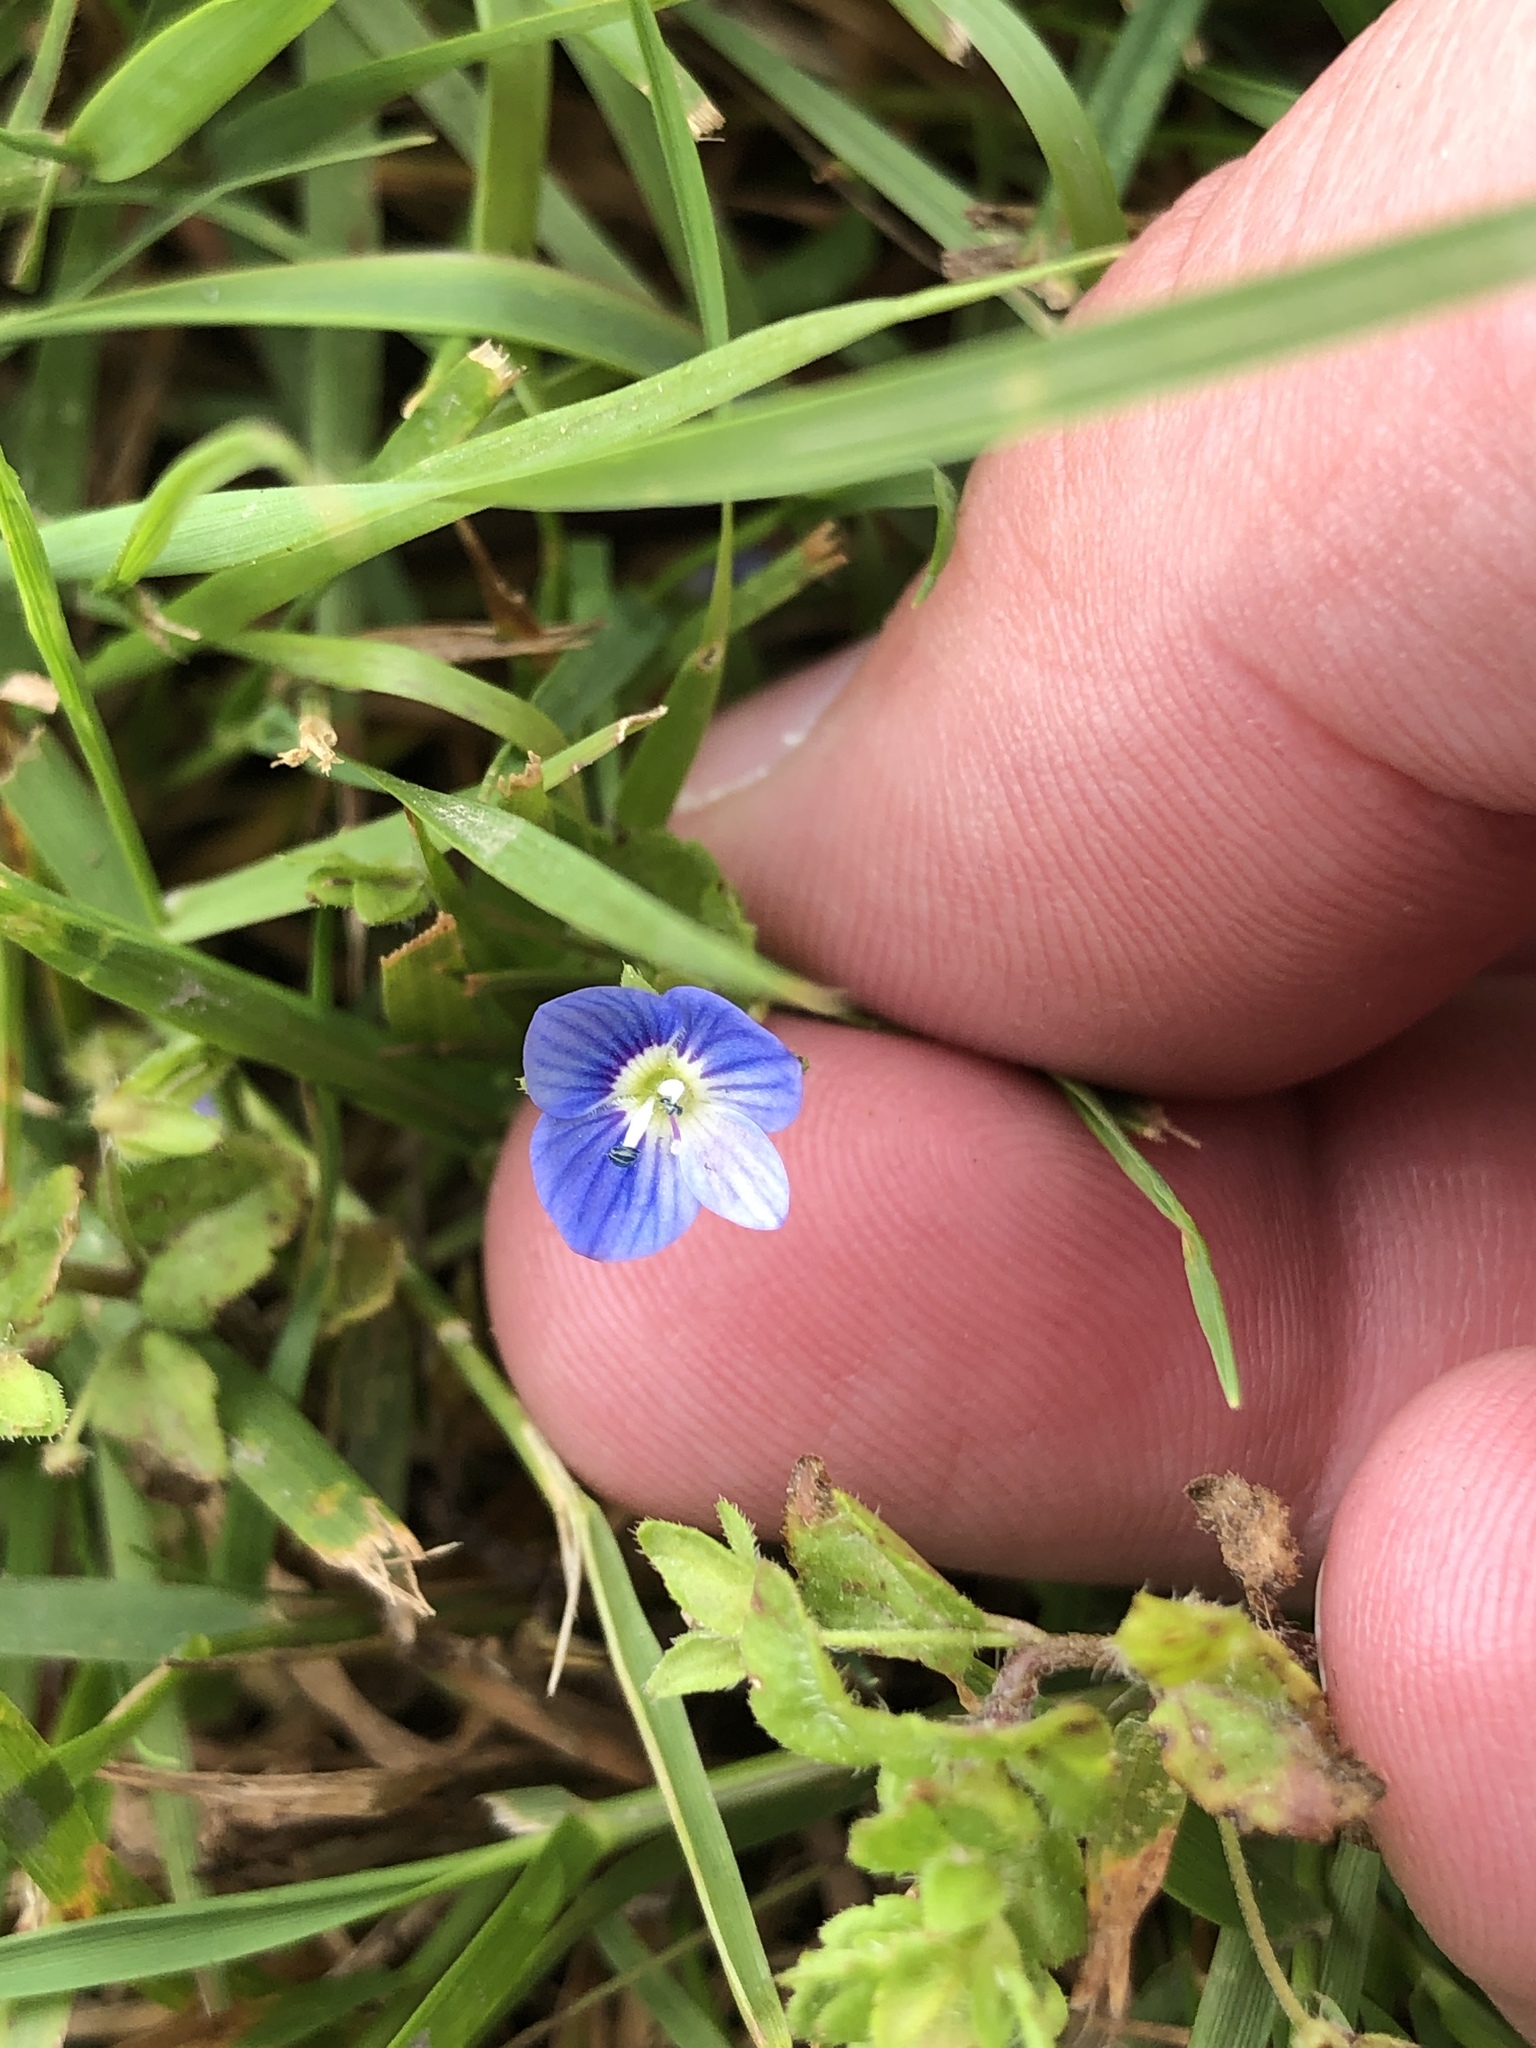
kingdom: Plantae
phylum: Tracheophyta
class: Magnoliopsida
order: Lamiales
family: Plantaginaceae
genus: Veronica
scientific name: Veronica persica
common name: Common field-speedwell
